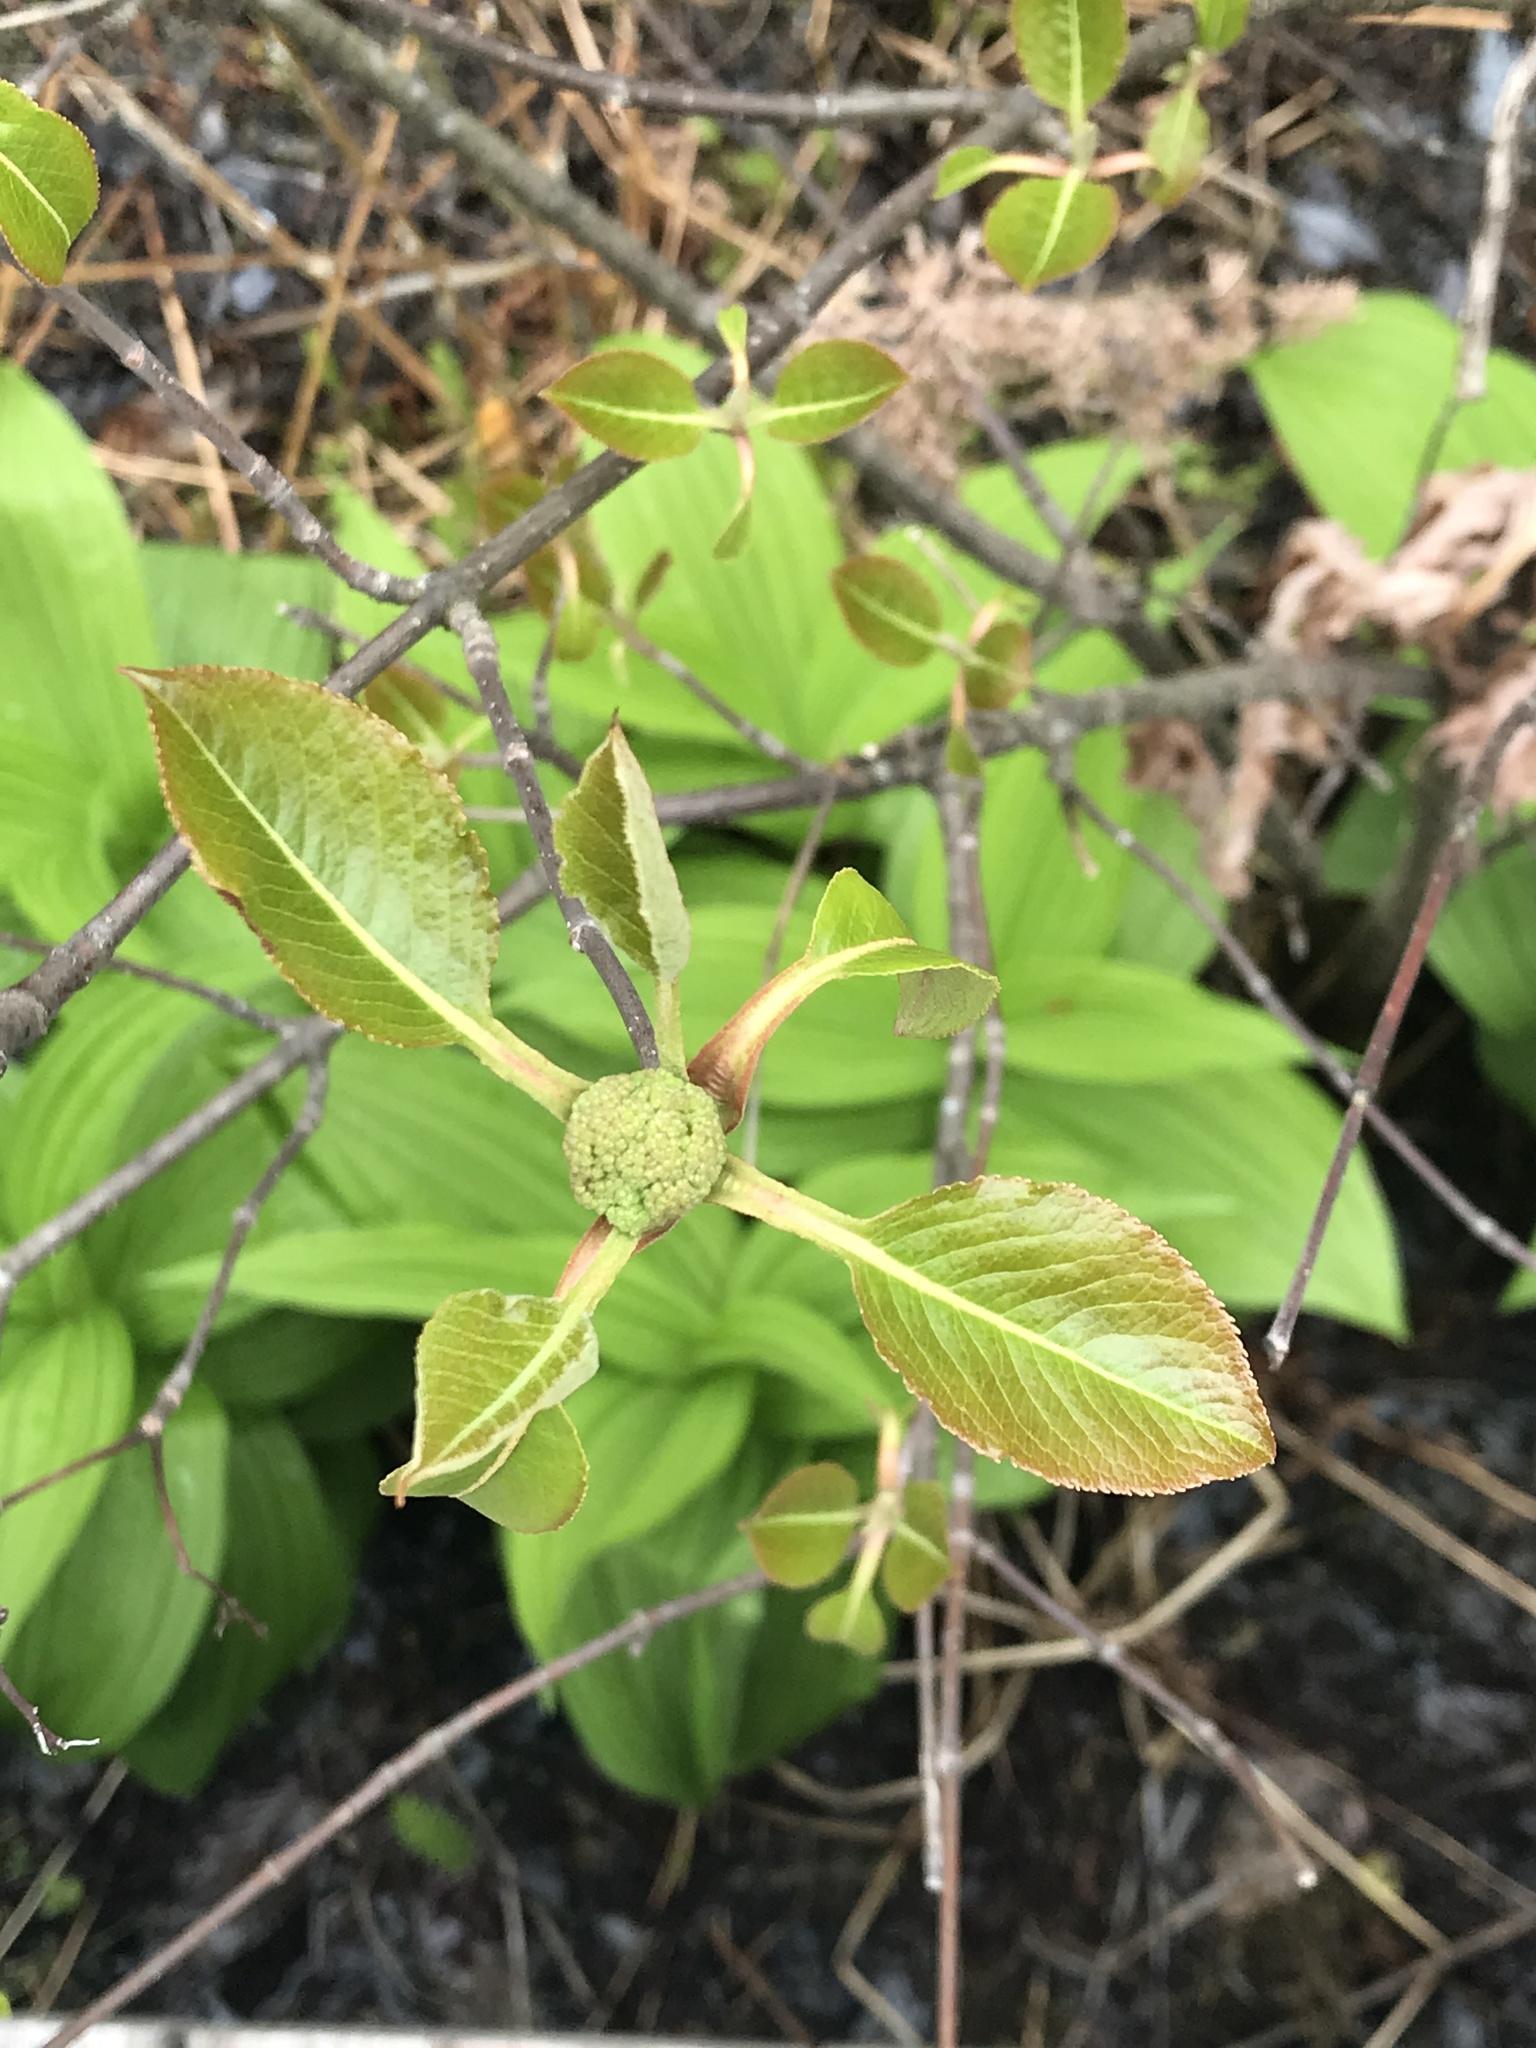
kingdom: Plantae
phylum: Tracheophyta
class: Magnoliopsida
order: Dipsacales
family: Viburnaceae
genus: Viburnum
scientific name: Viburnum lentago
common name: Black haw
